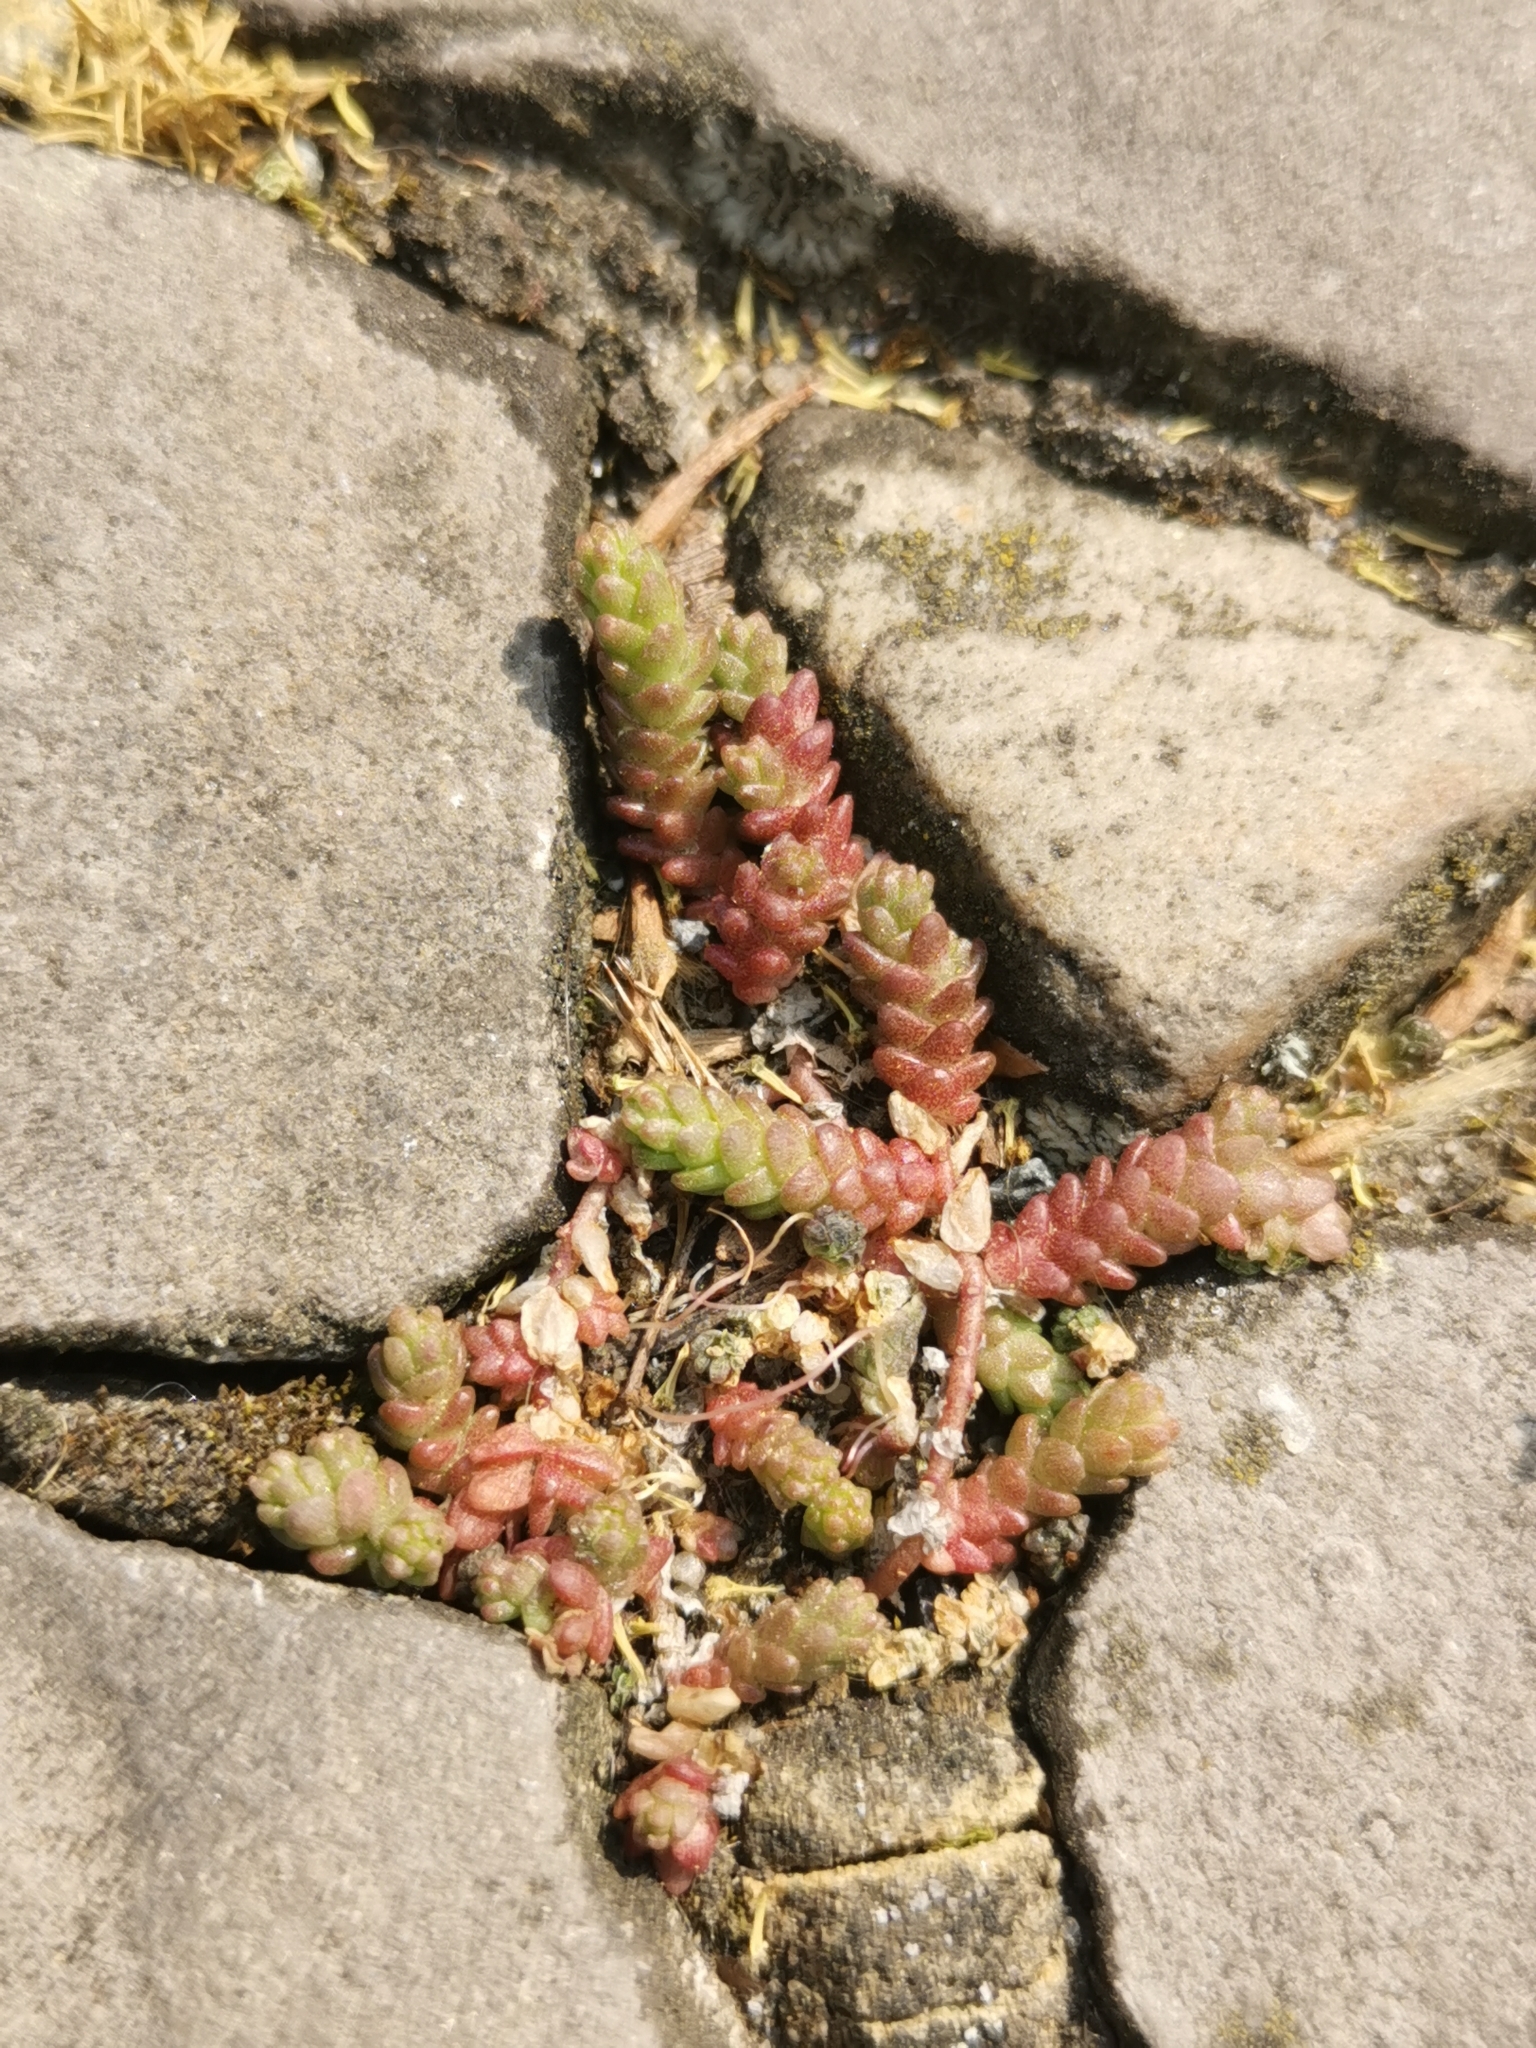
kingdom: Plantae
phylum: Tracheophyta
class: Magnoliopsida
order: Saxifragales
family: Crassulaceae
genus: Sedum
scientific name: Sedum acre
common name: Biting stonecrop
